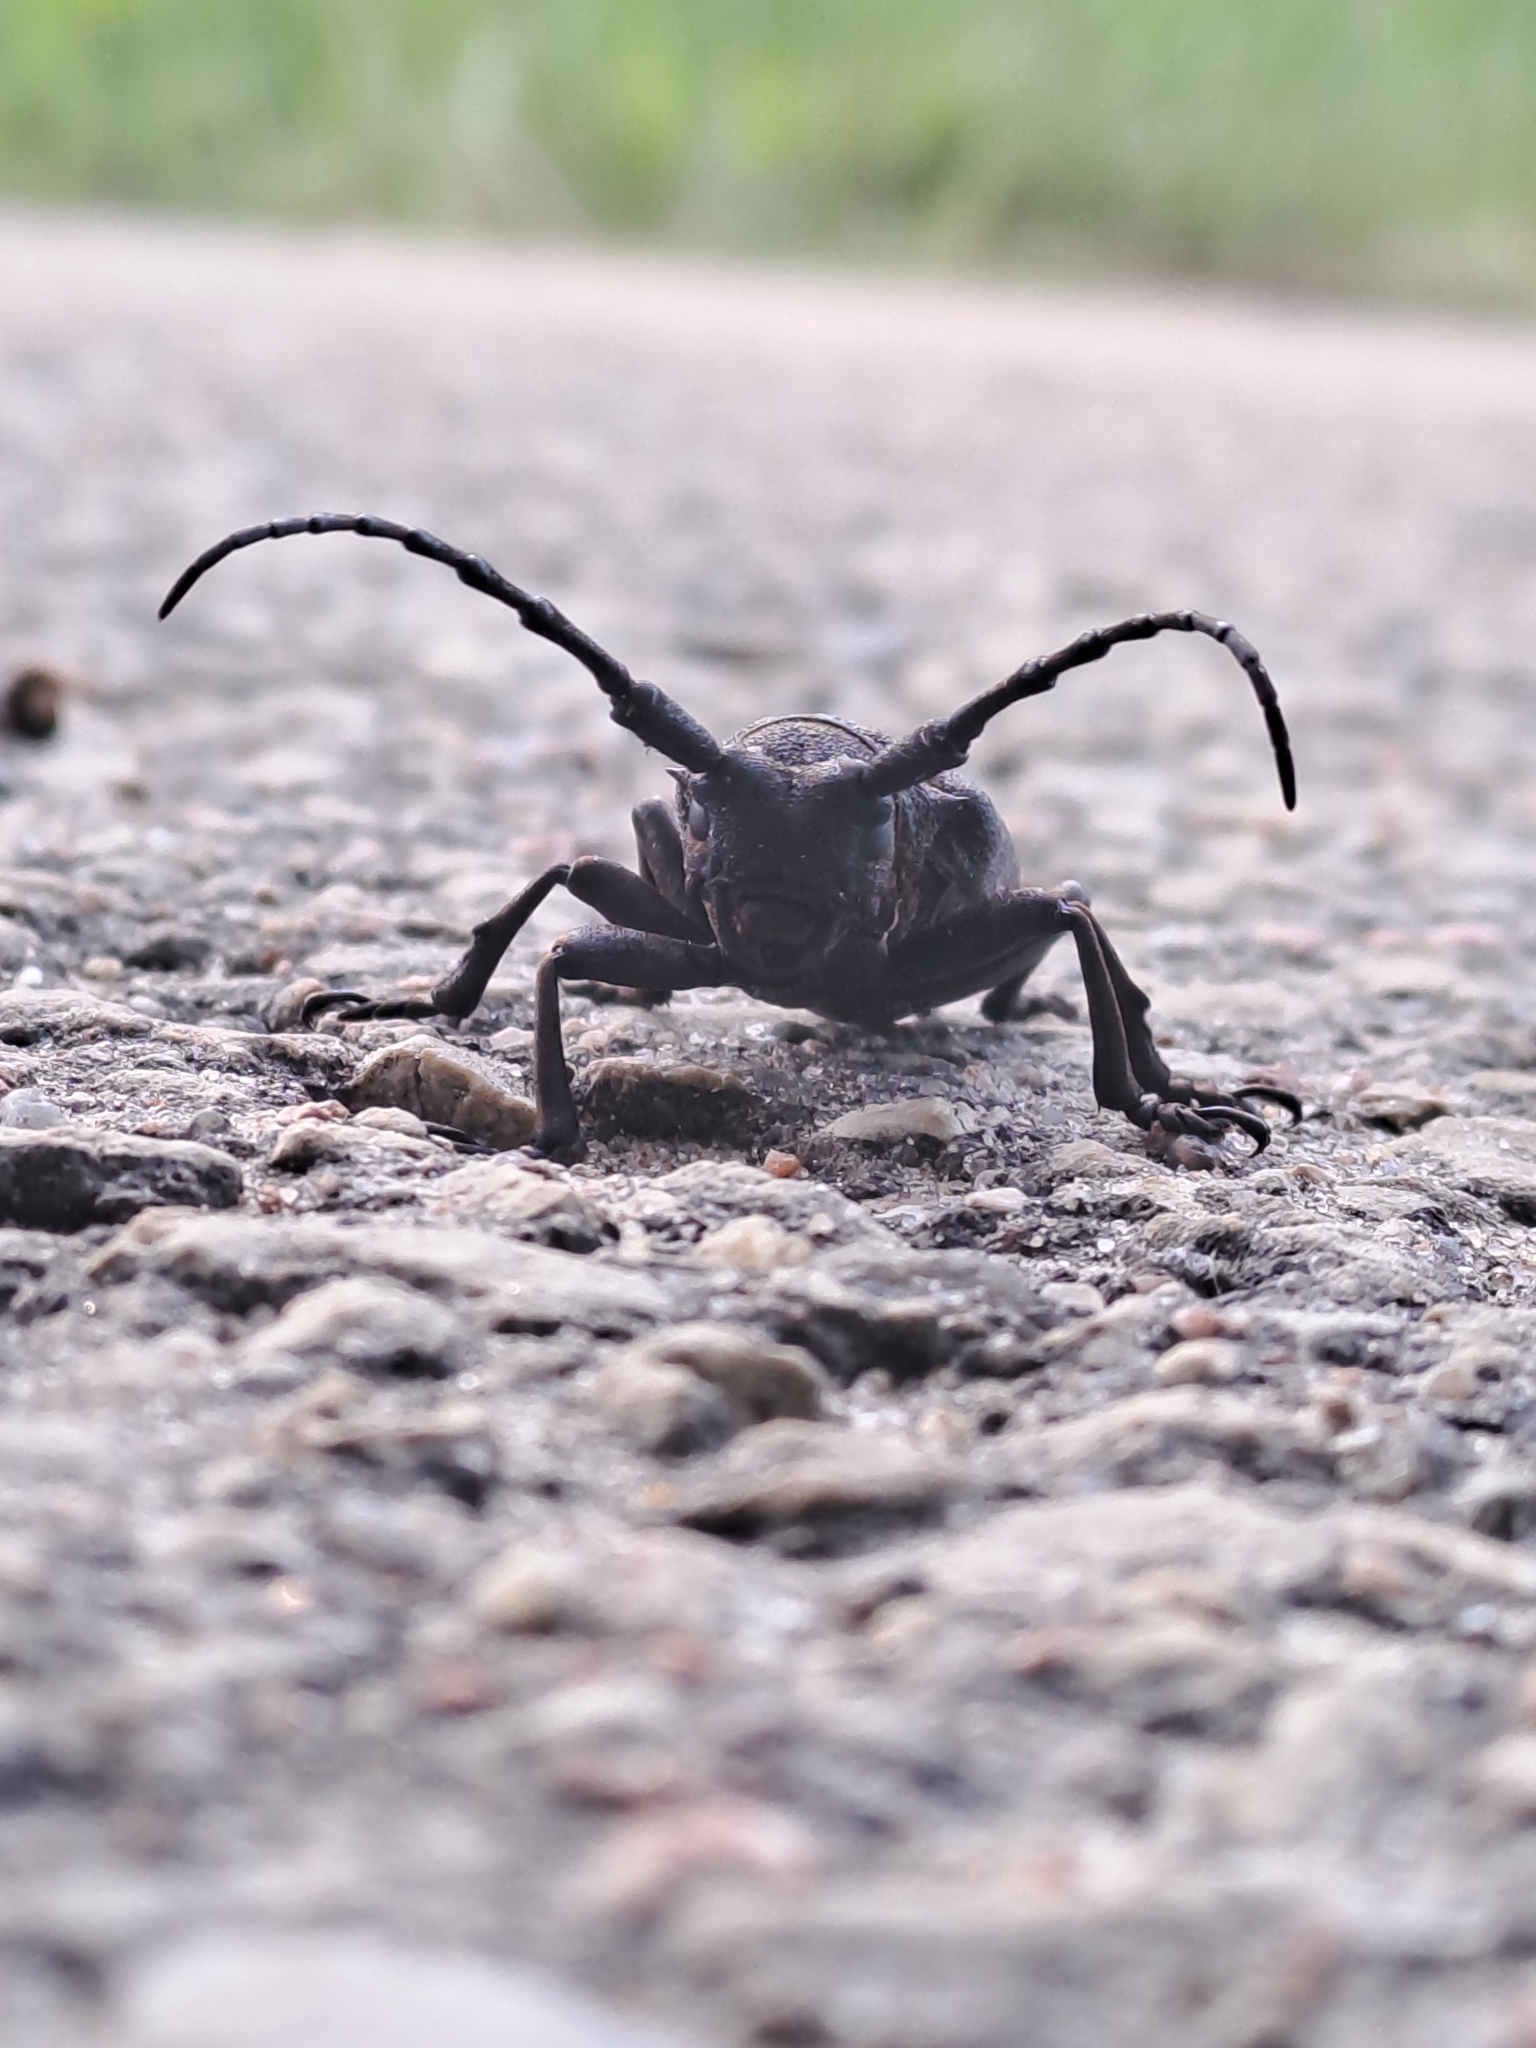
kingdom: Animalia
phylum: Arthropoda
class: Insecta
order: Coleoptera
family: Cerambycidae
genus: Lamia
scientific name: Lamia textor
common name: Weaver beetle
